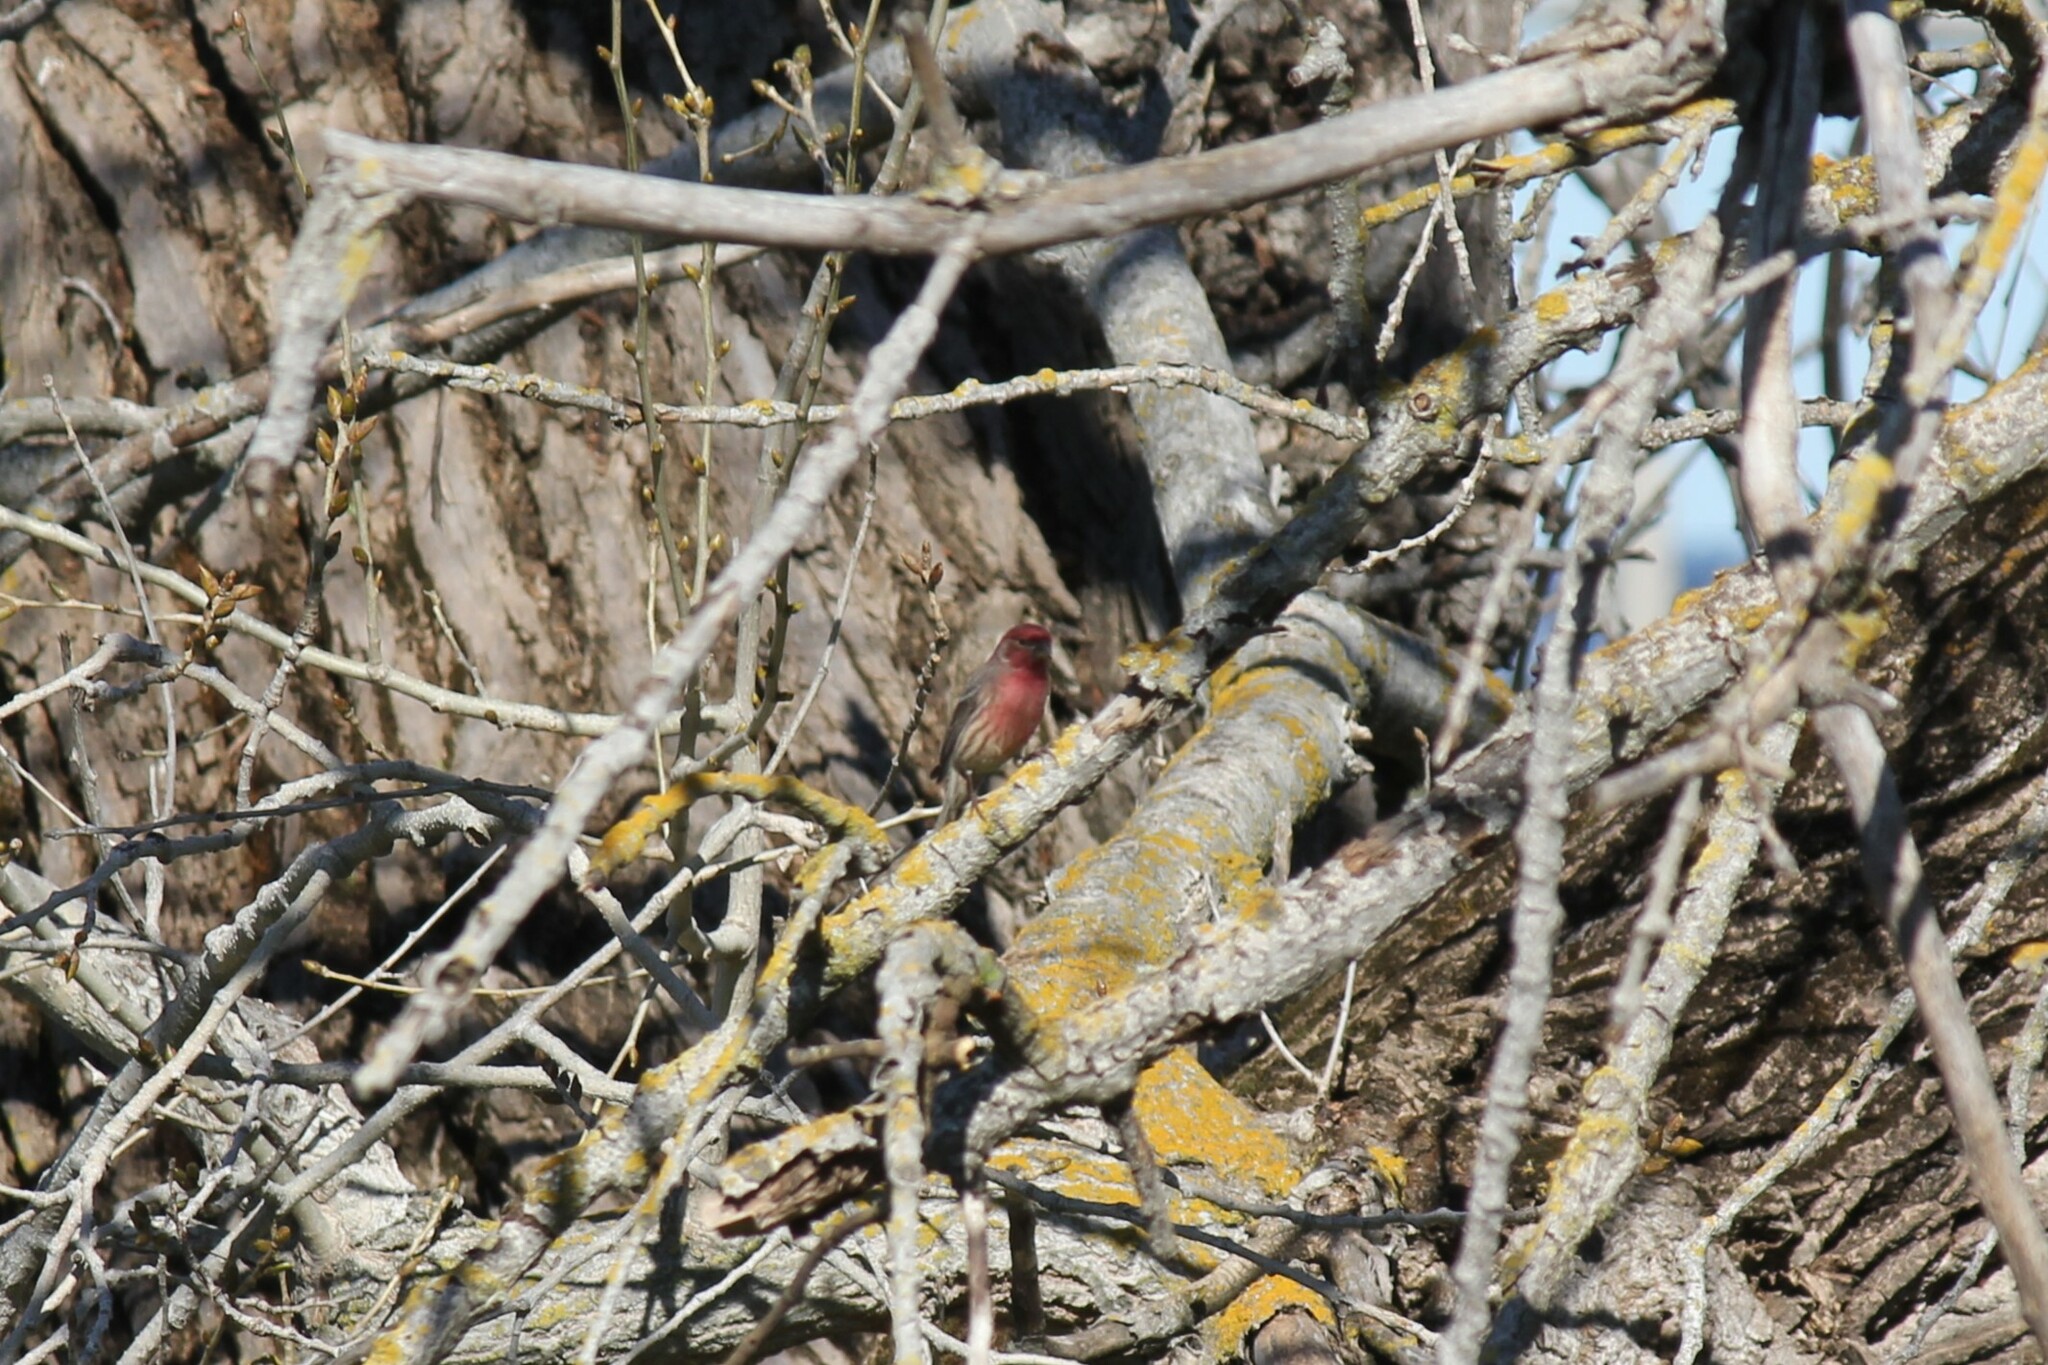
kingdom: Animalia
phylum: Chordata
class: Aves
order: Passeriformes
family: Fringillidae
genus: Haemorhous
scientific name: Haemorhous mexicanus
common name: House finch
